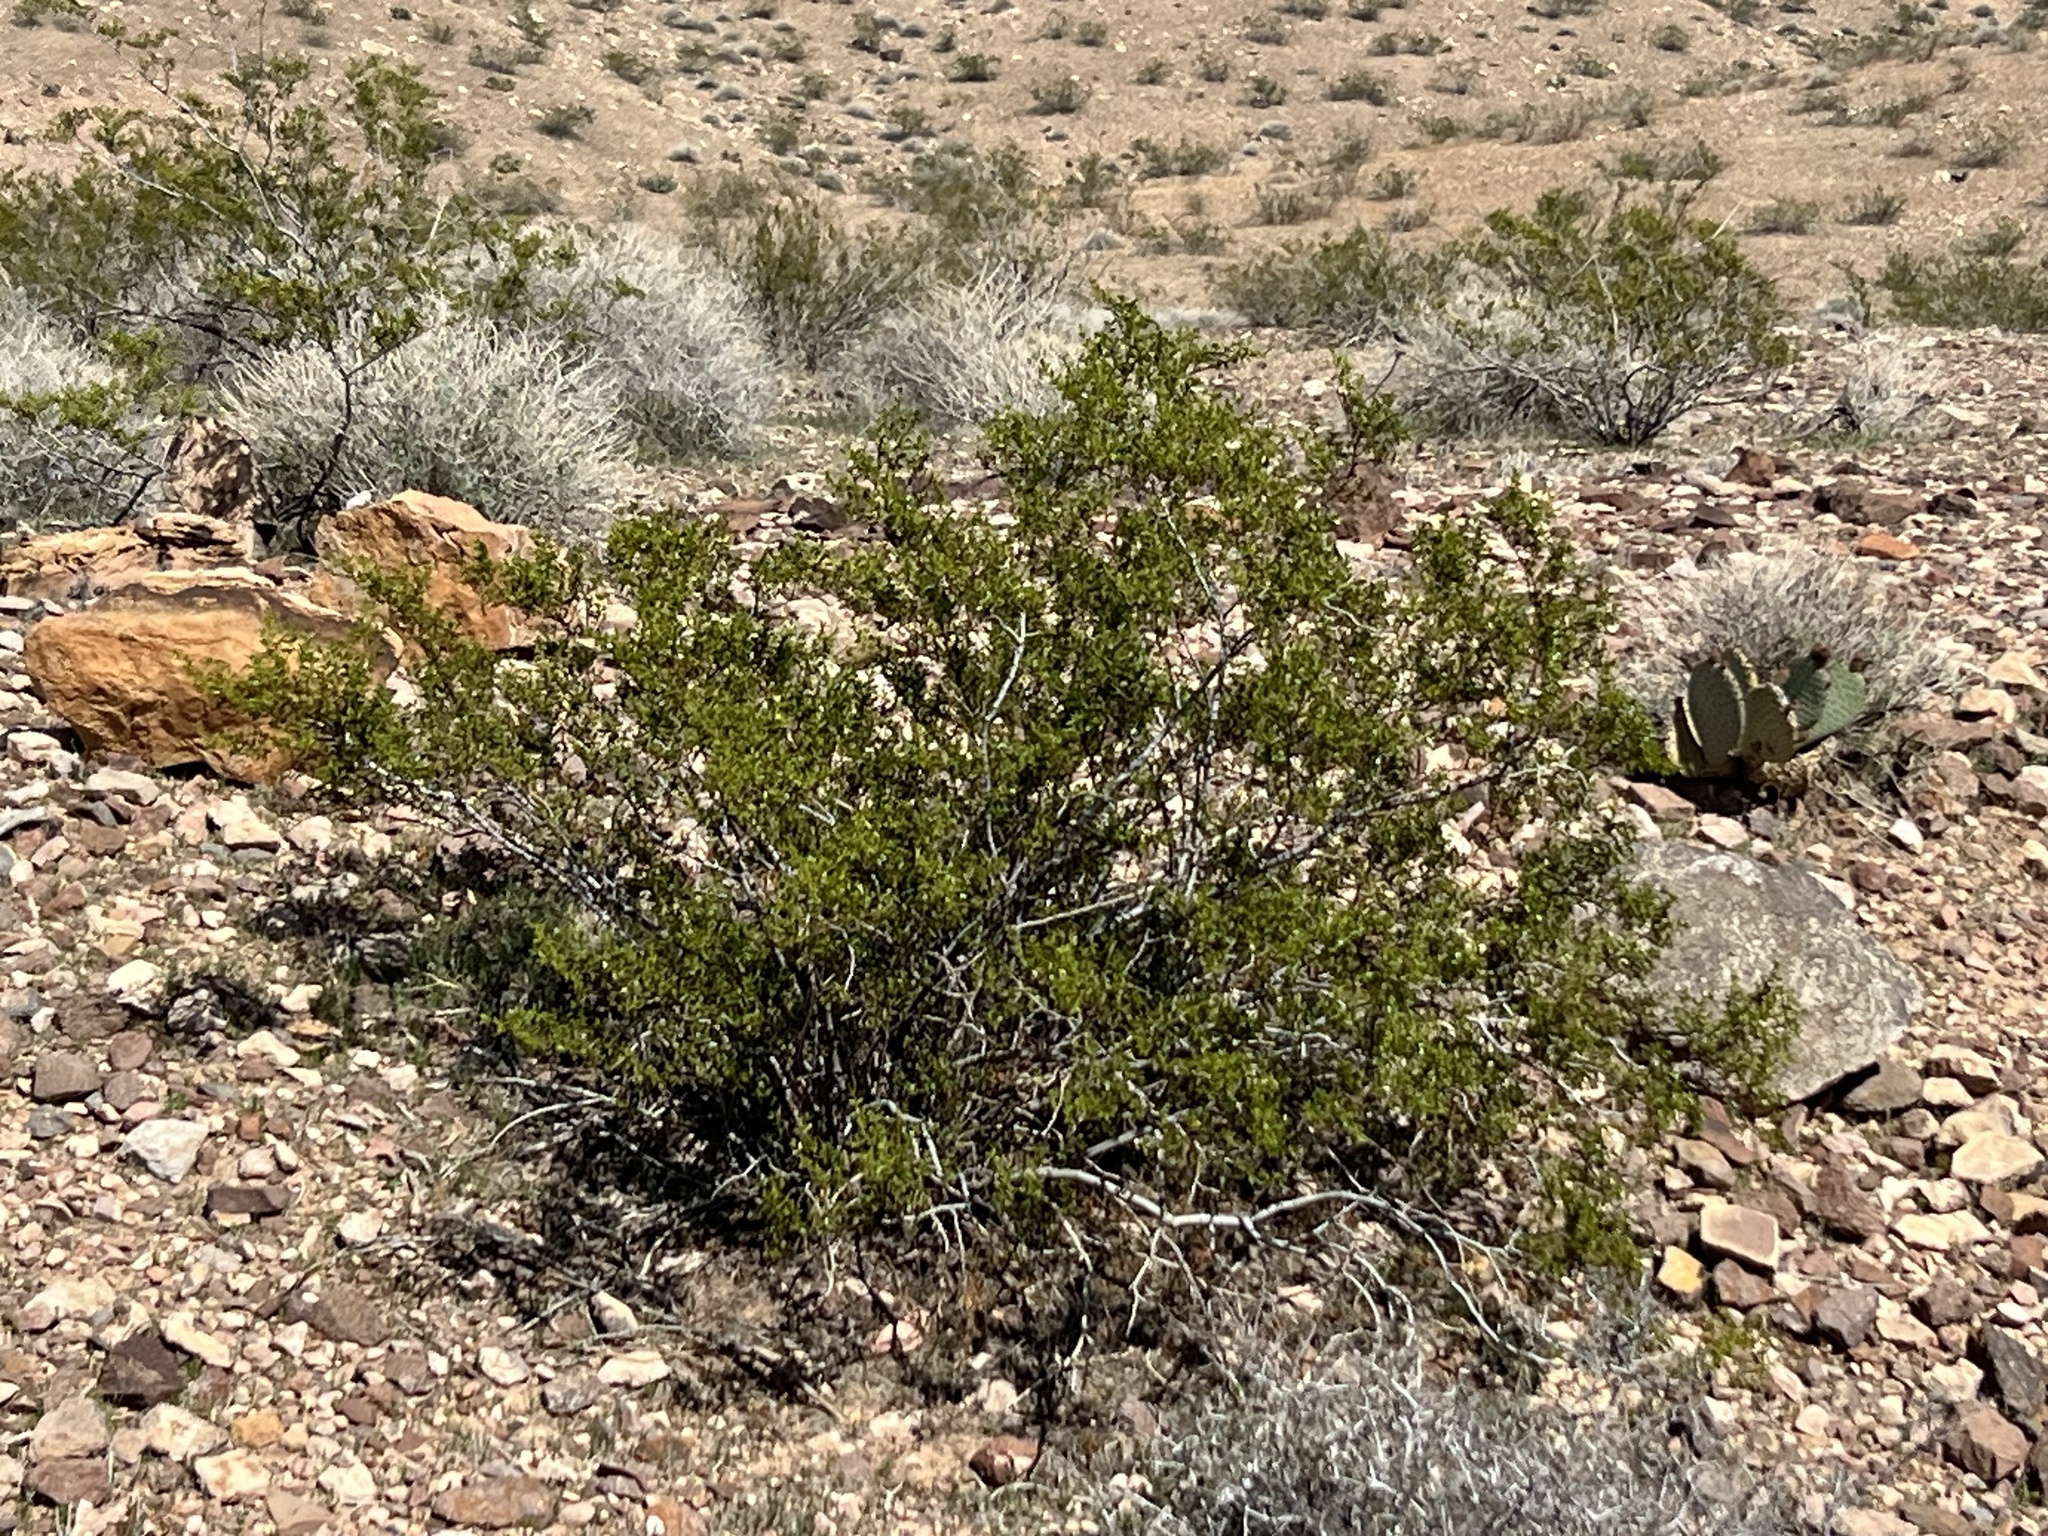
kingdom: Plantae
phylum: Tracheophyta
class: Magnoliopsida
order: Zygophyllales
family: Zygophyllaceae
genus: Larrea
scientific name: Larrea tridentata
